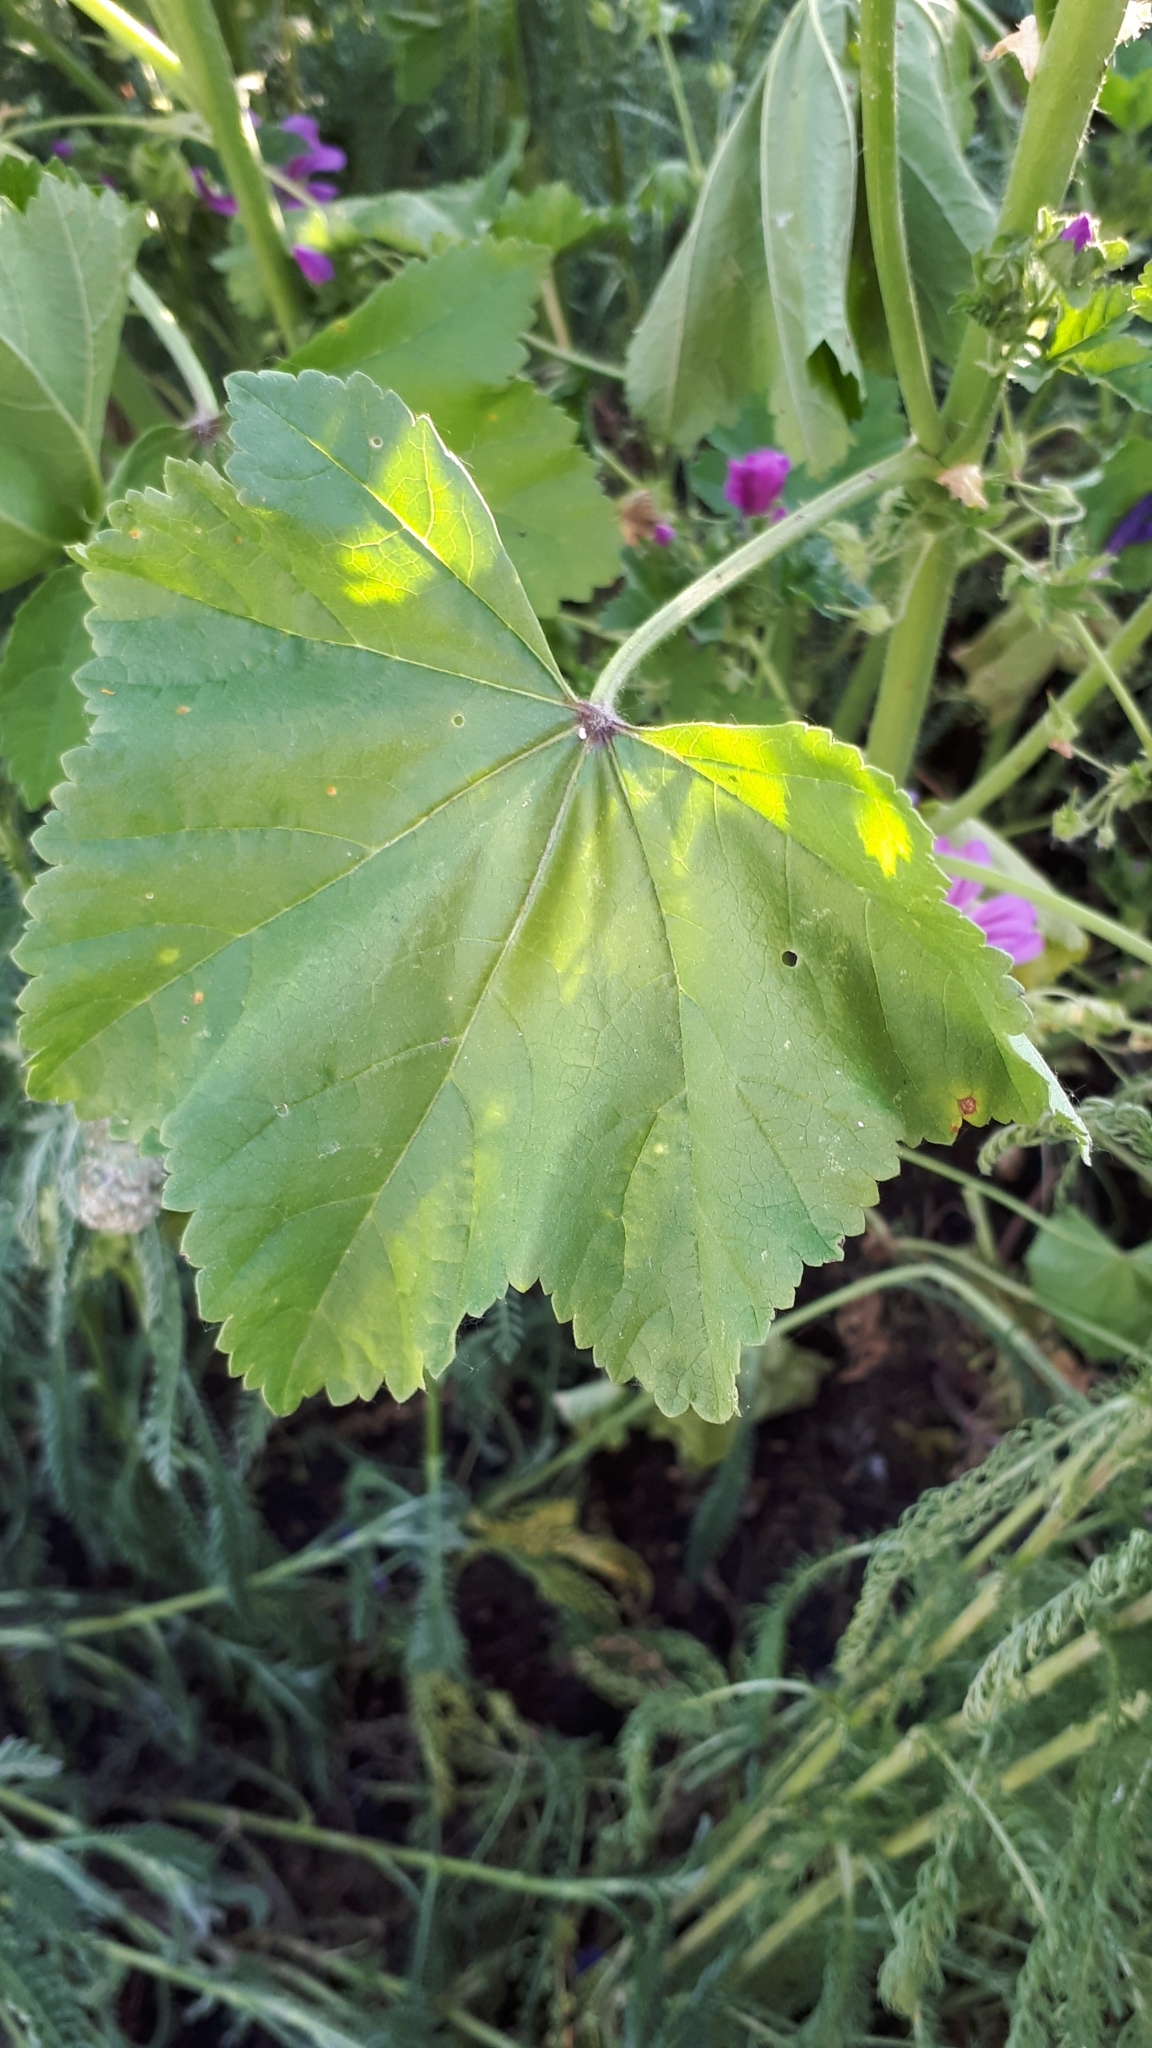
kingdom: Plantae
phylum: Tracheophyta
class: Magnoliopsida
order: Malvales
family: Malvaceae
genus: Malva
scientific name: Malva sylvestris
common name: Common mallow
